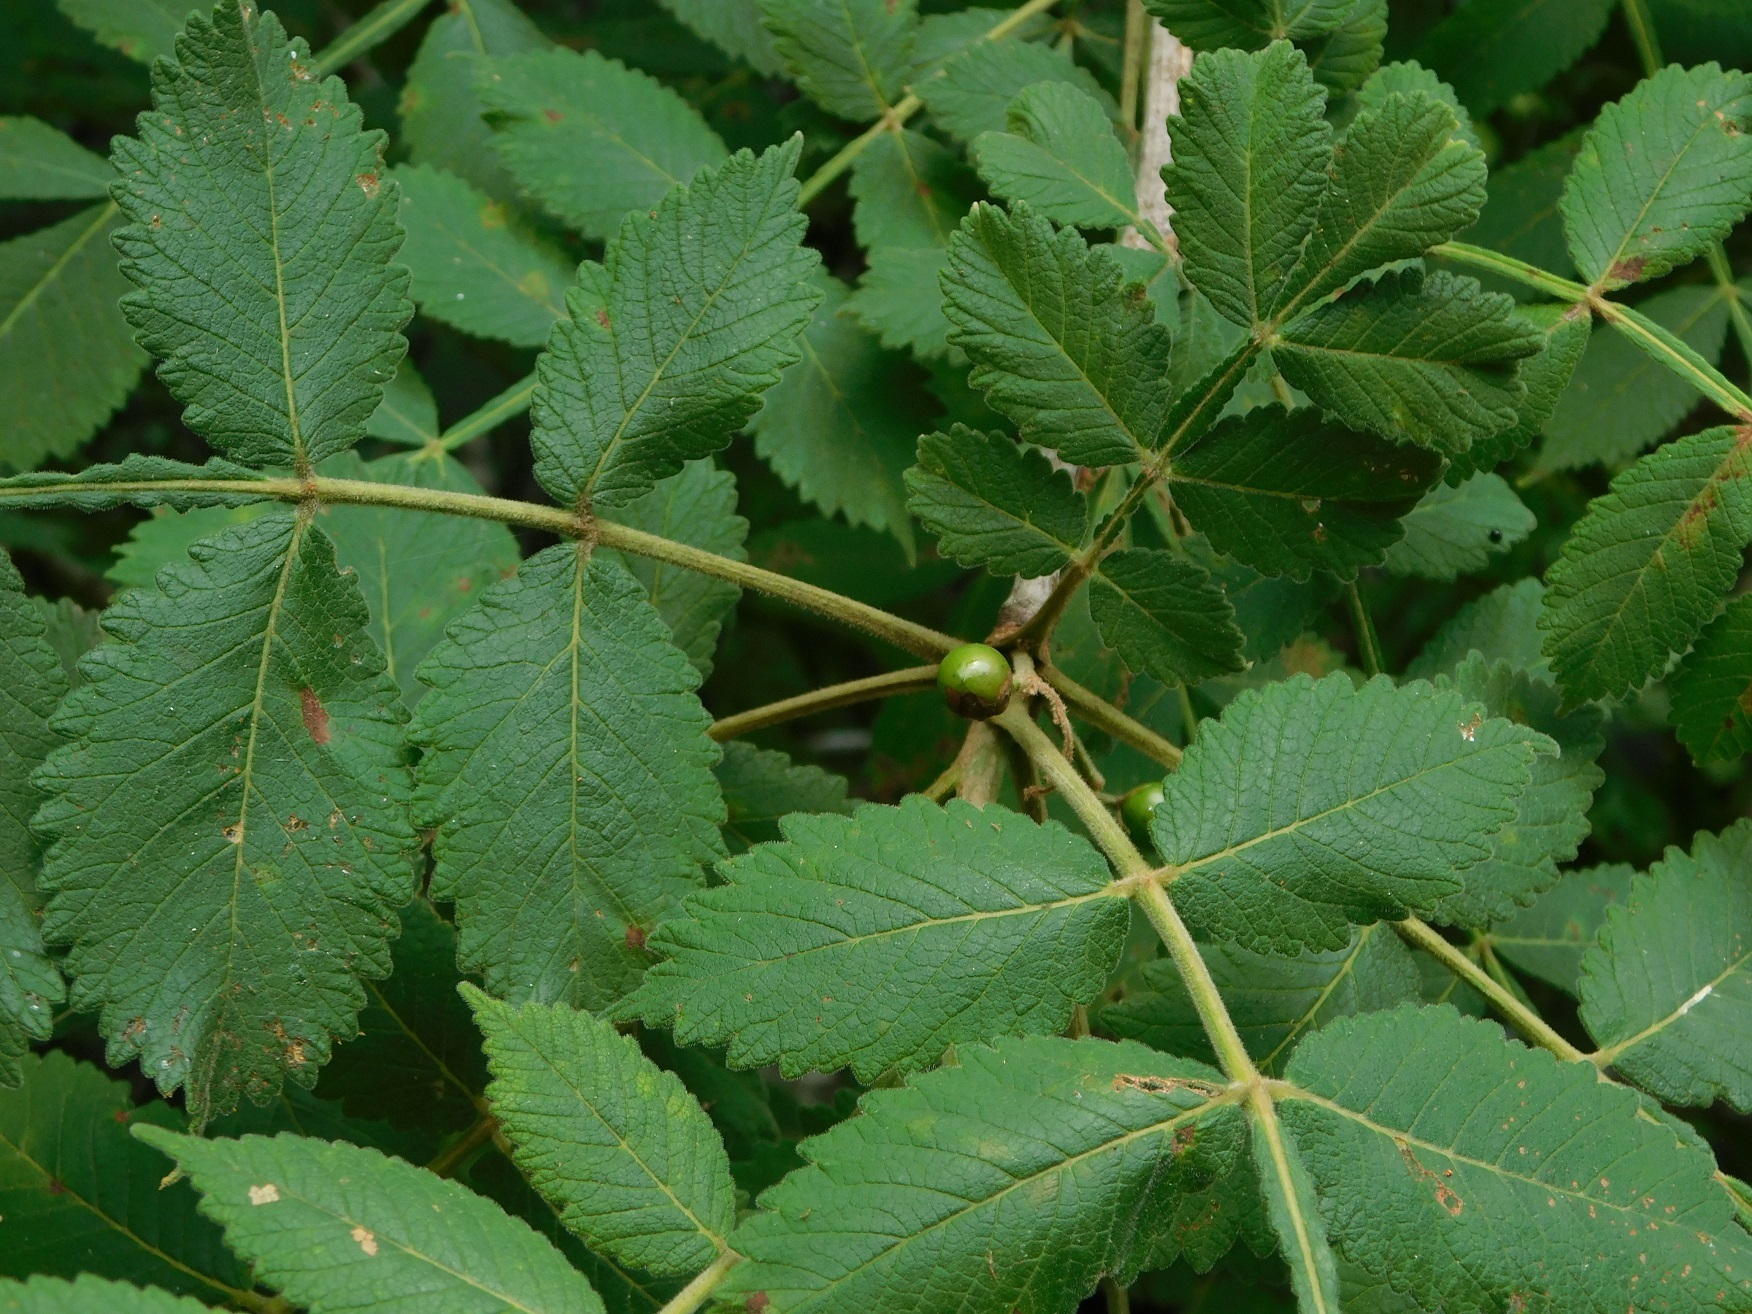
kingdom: Plantae
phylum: Tracheophyta
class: Magnoliopsida
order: Sapindales
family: Burseraceae
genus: Bursera
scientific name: Bursera excelsa
